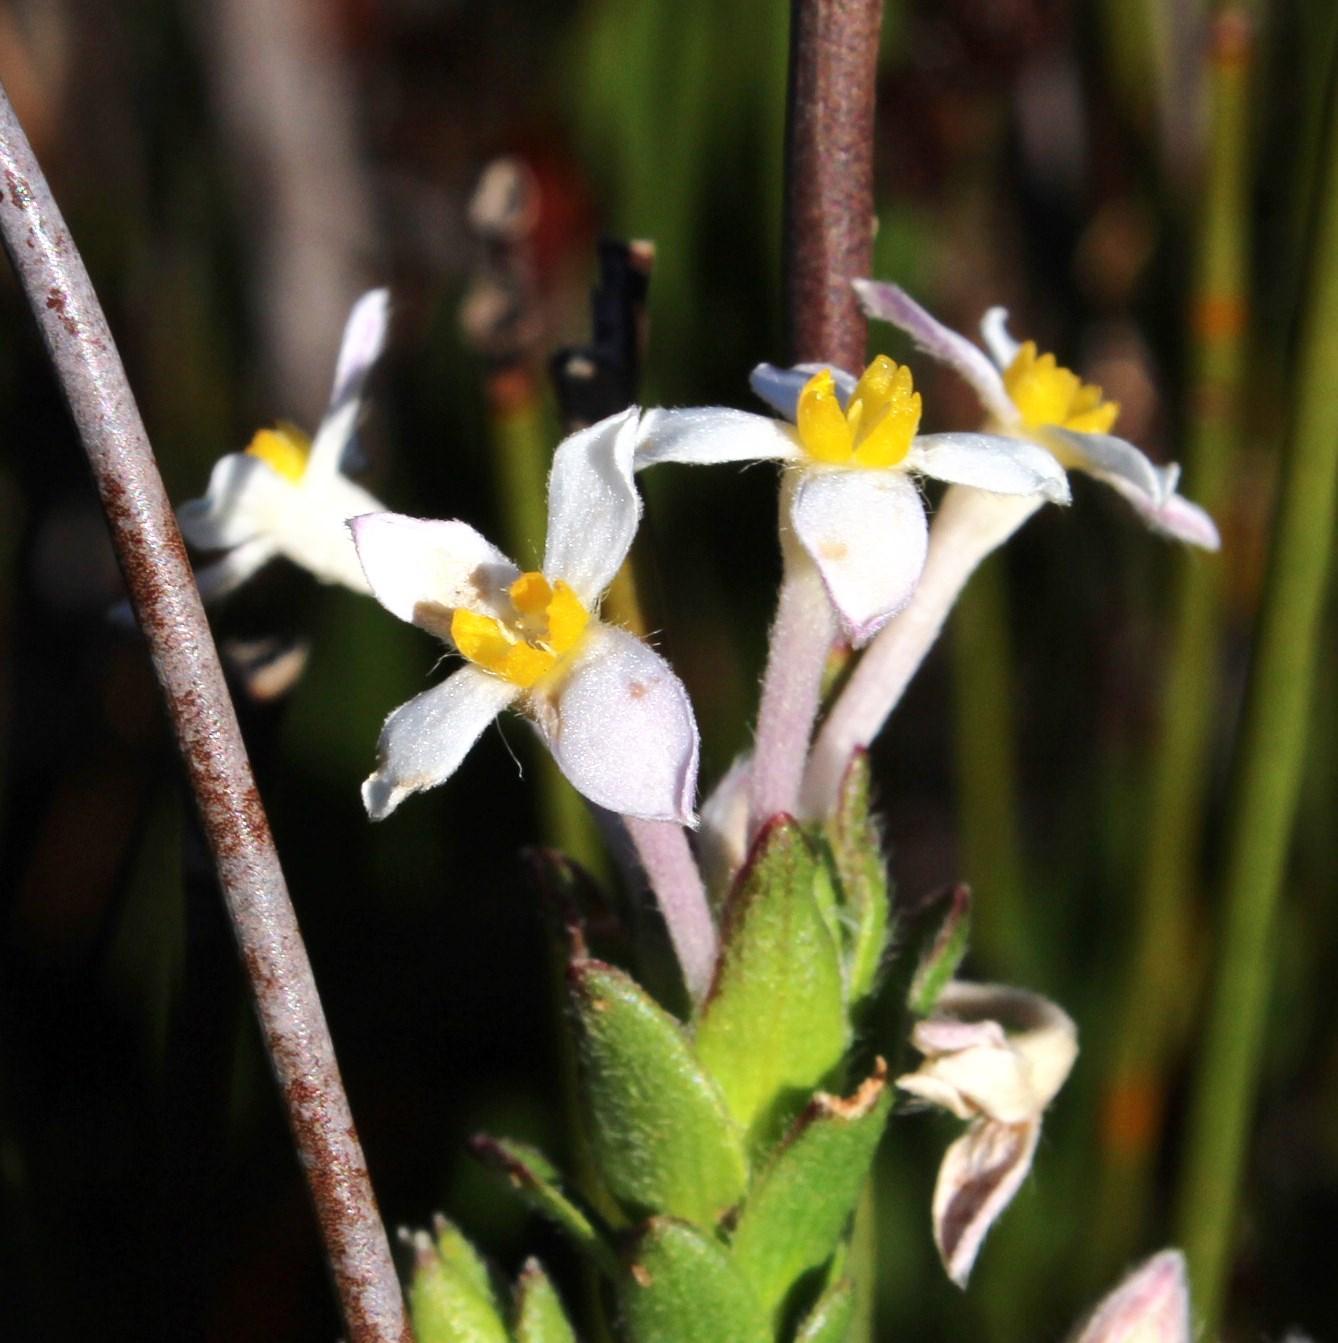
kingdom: Plantae
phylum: Tracheophyta
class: Magnoliopsida
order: Malvales
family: Thymelaeaceae
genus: Gnidia
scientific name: Gnidia tomentosa
